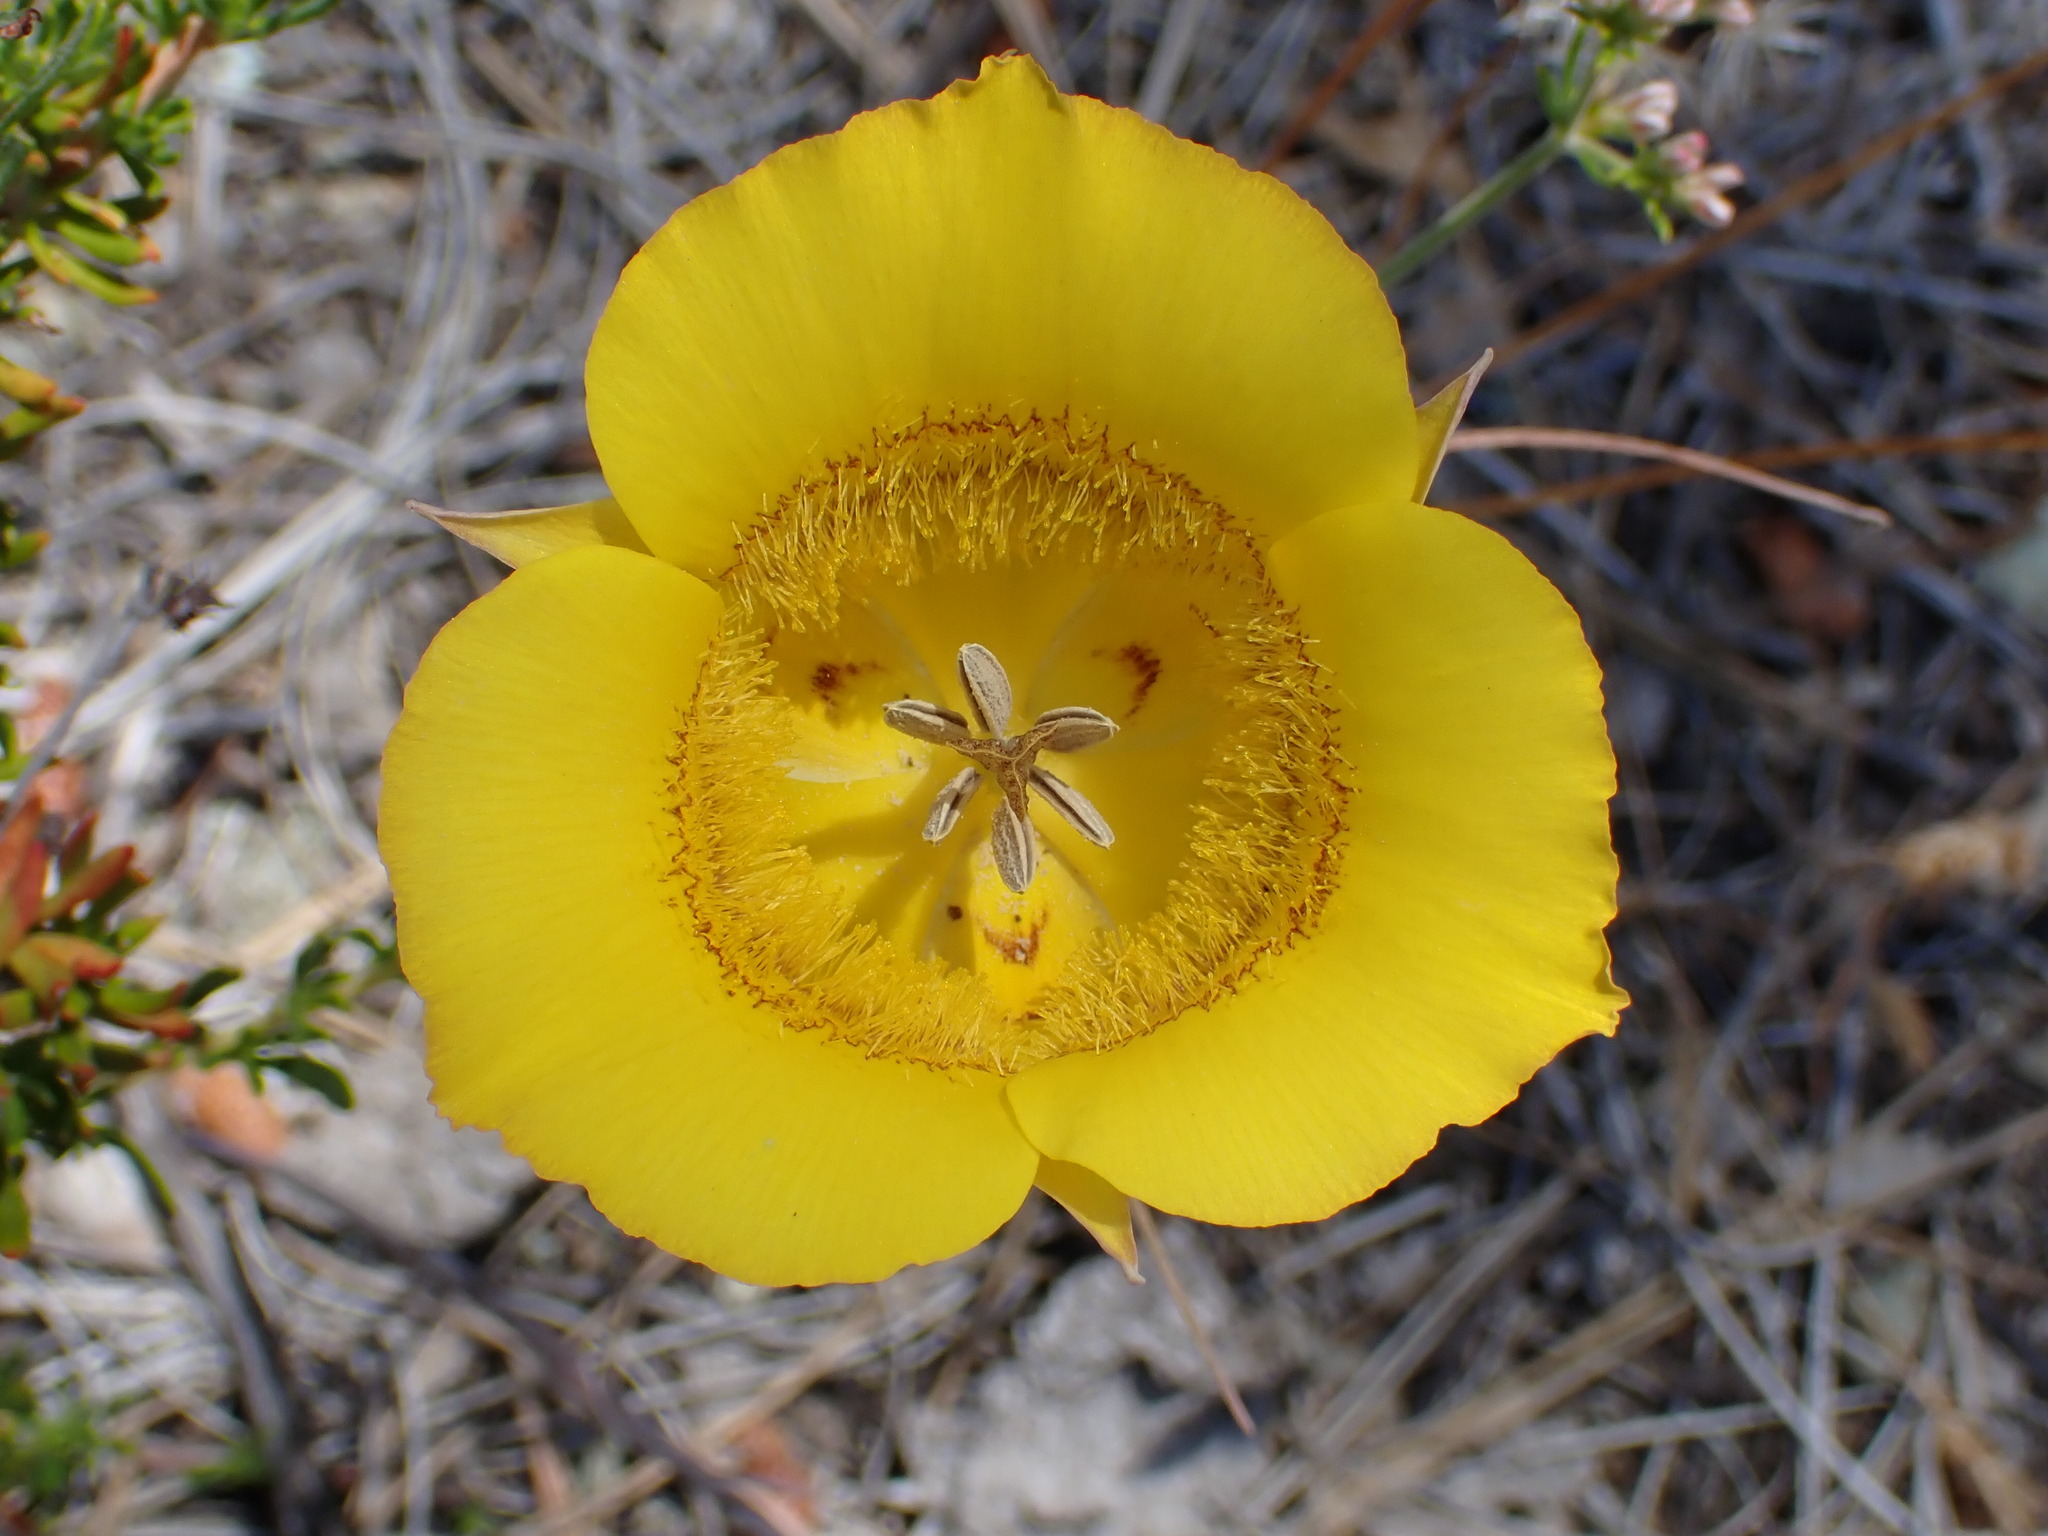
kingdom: Plantae
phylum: Tracheophyta
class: Liliopsida
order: Liliales
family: Liliaceae
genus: Calochortus
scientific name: Calochortus clavatus
